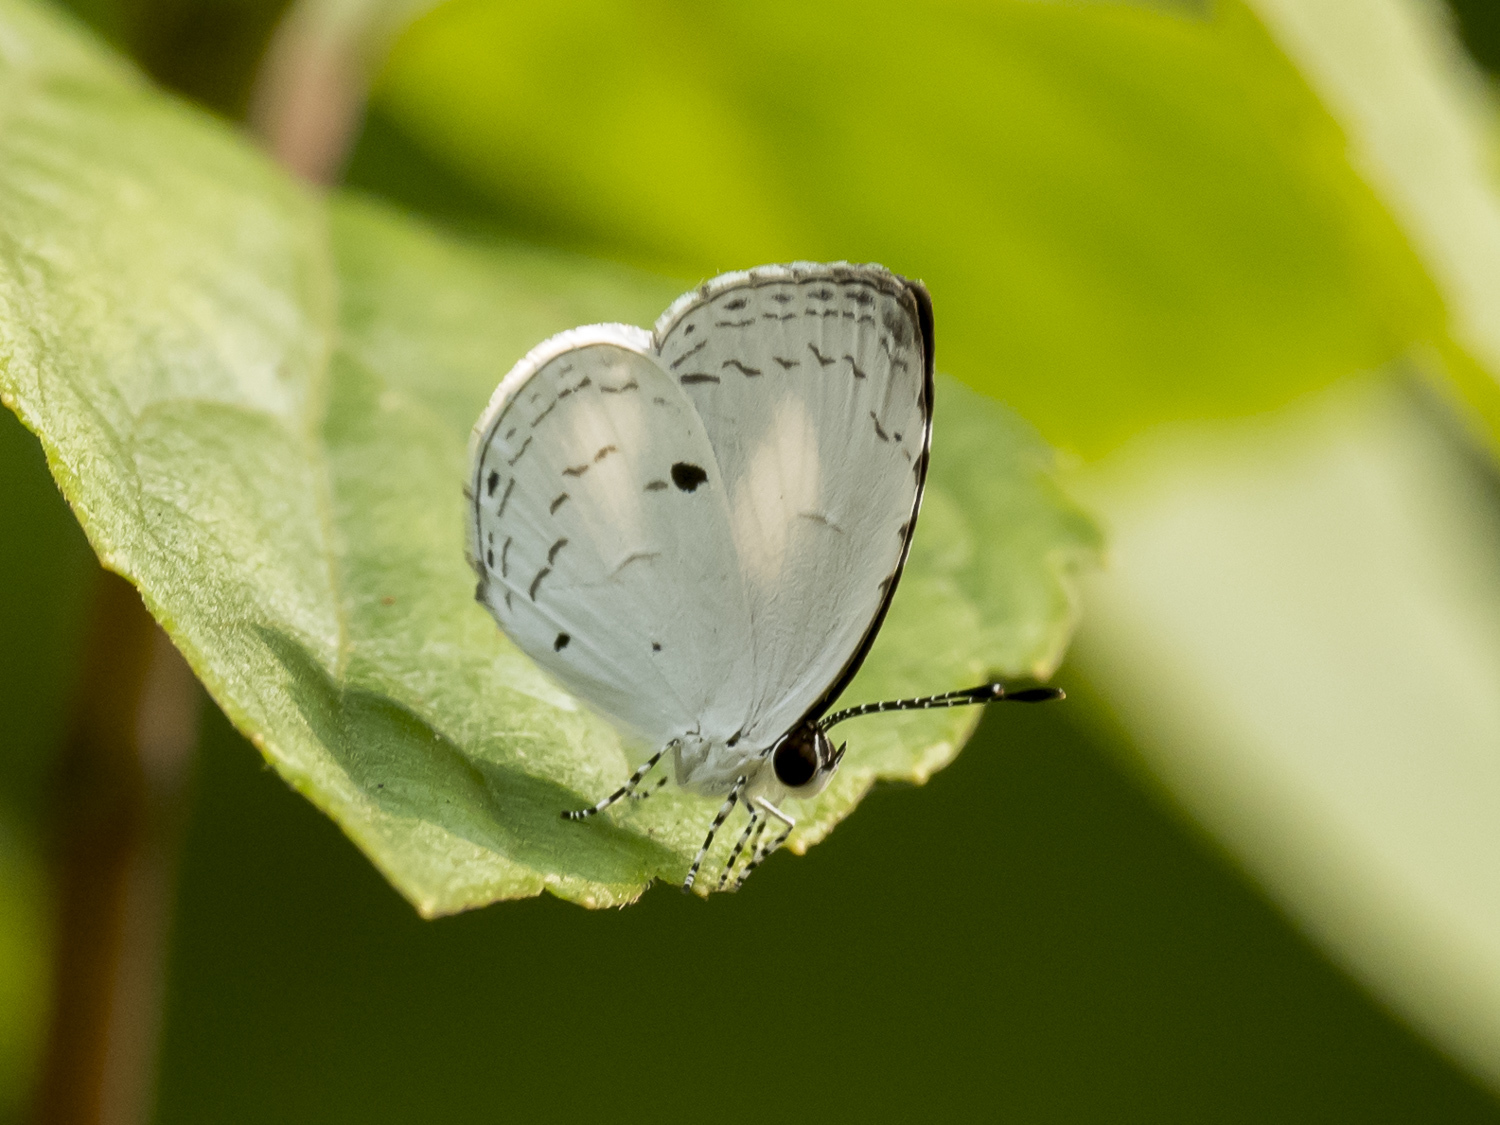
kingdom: Animalia
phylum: Arthropoda
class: Insecta
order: Lepidoptera
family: Lycaenidae
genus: Neopithecops
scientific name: Neopithecops zalmora
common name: Quaker
